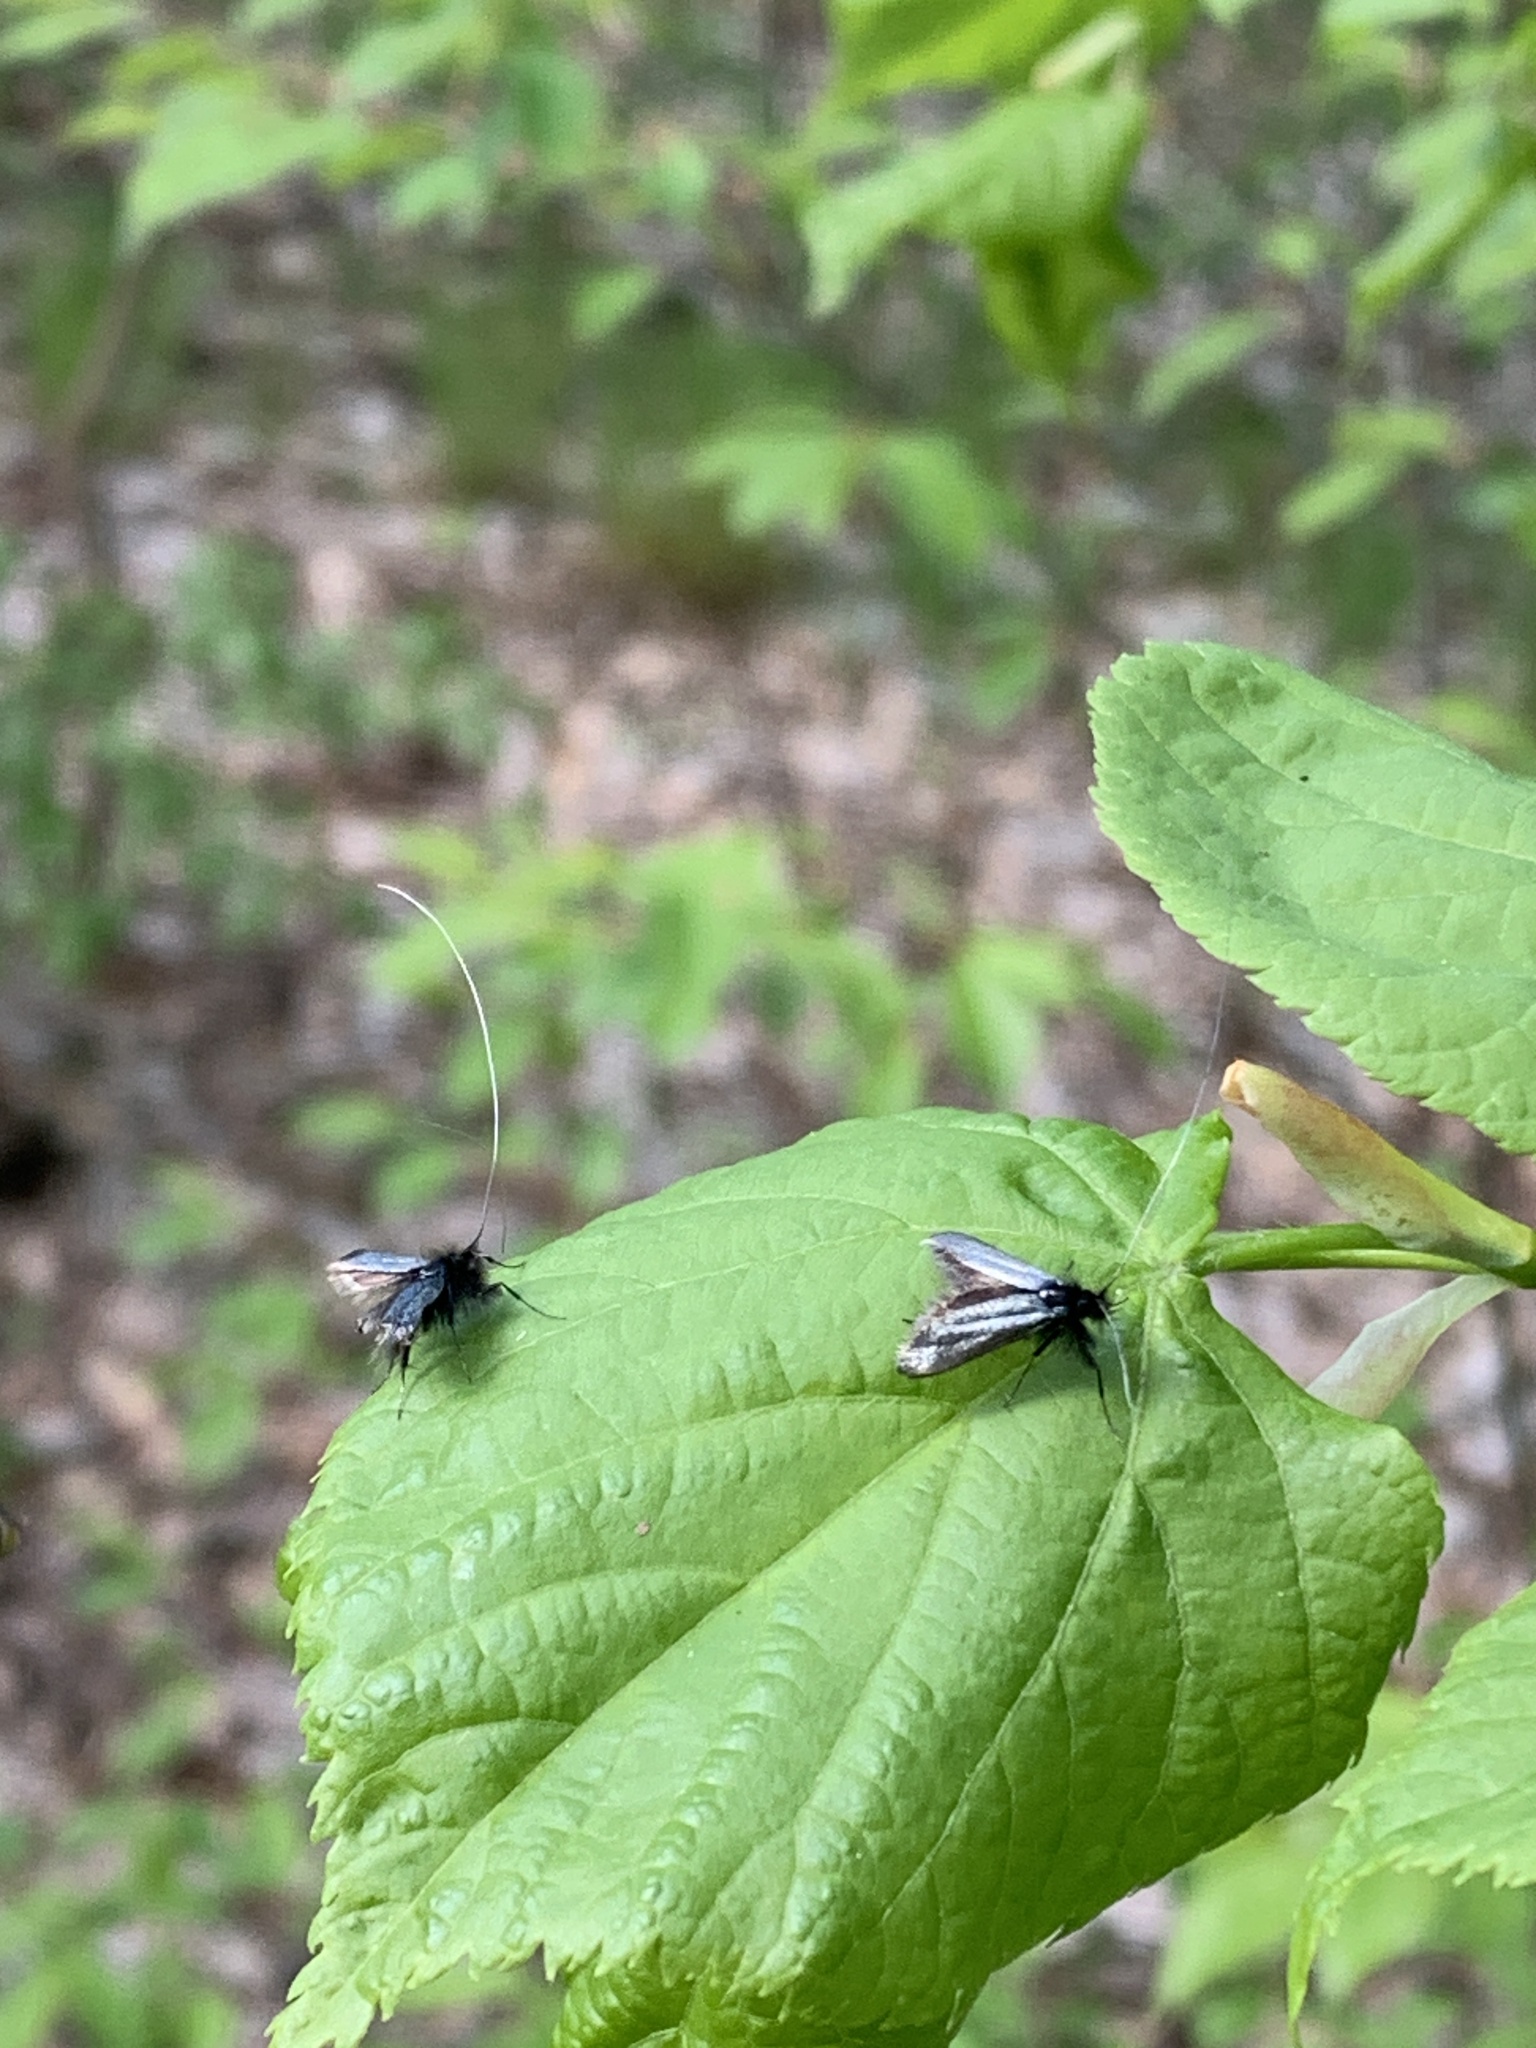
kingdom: Animalia
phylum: Arthropoda
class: Insecta
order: Lepidoptera
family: Adelidae
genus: Adela
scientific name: Adela viridella
